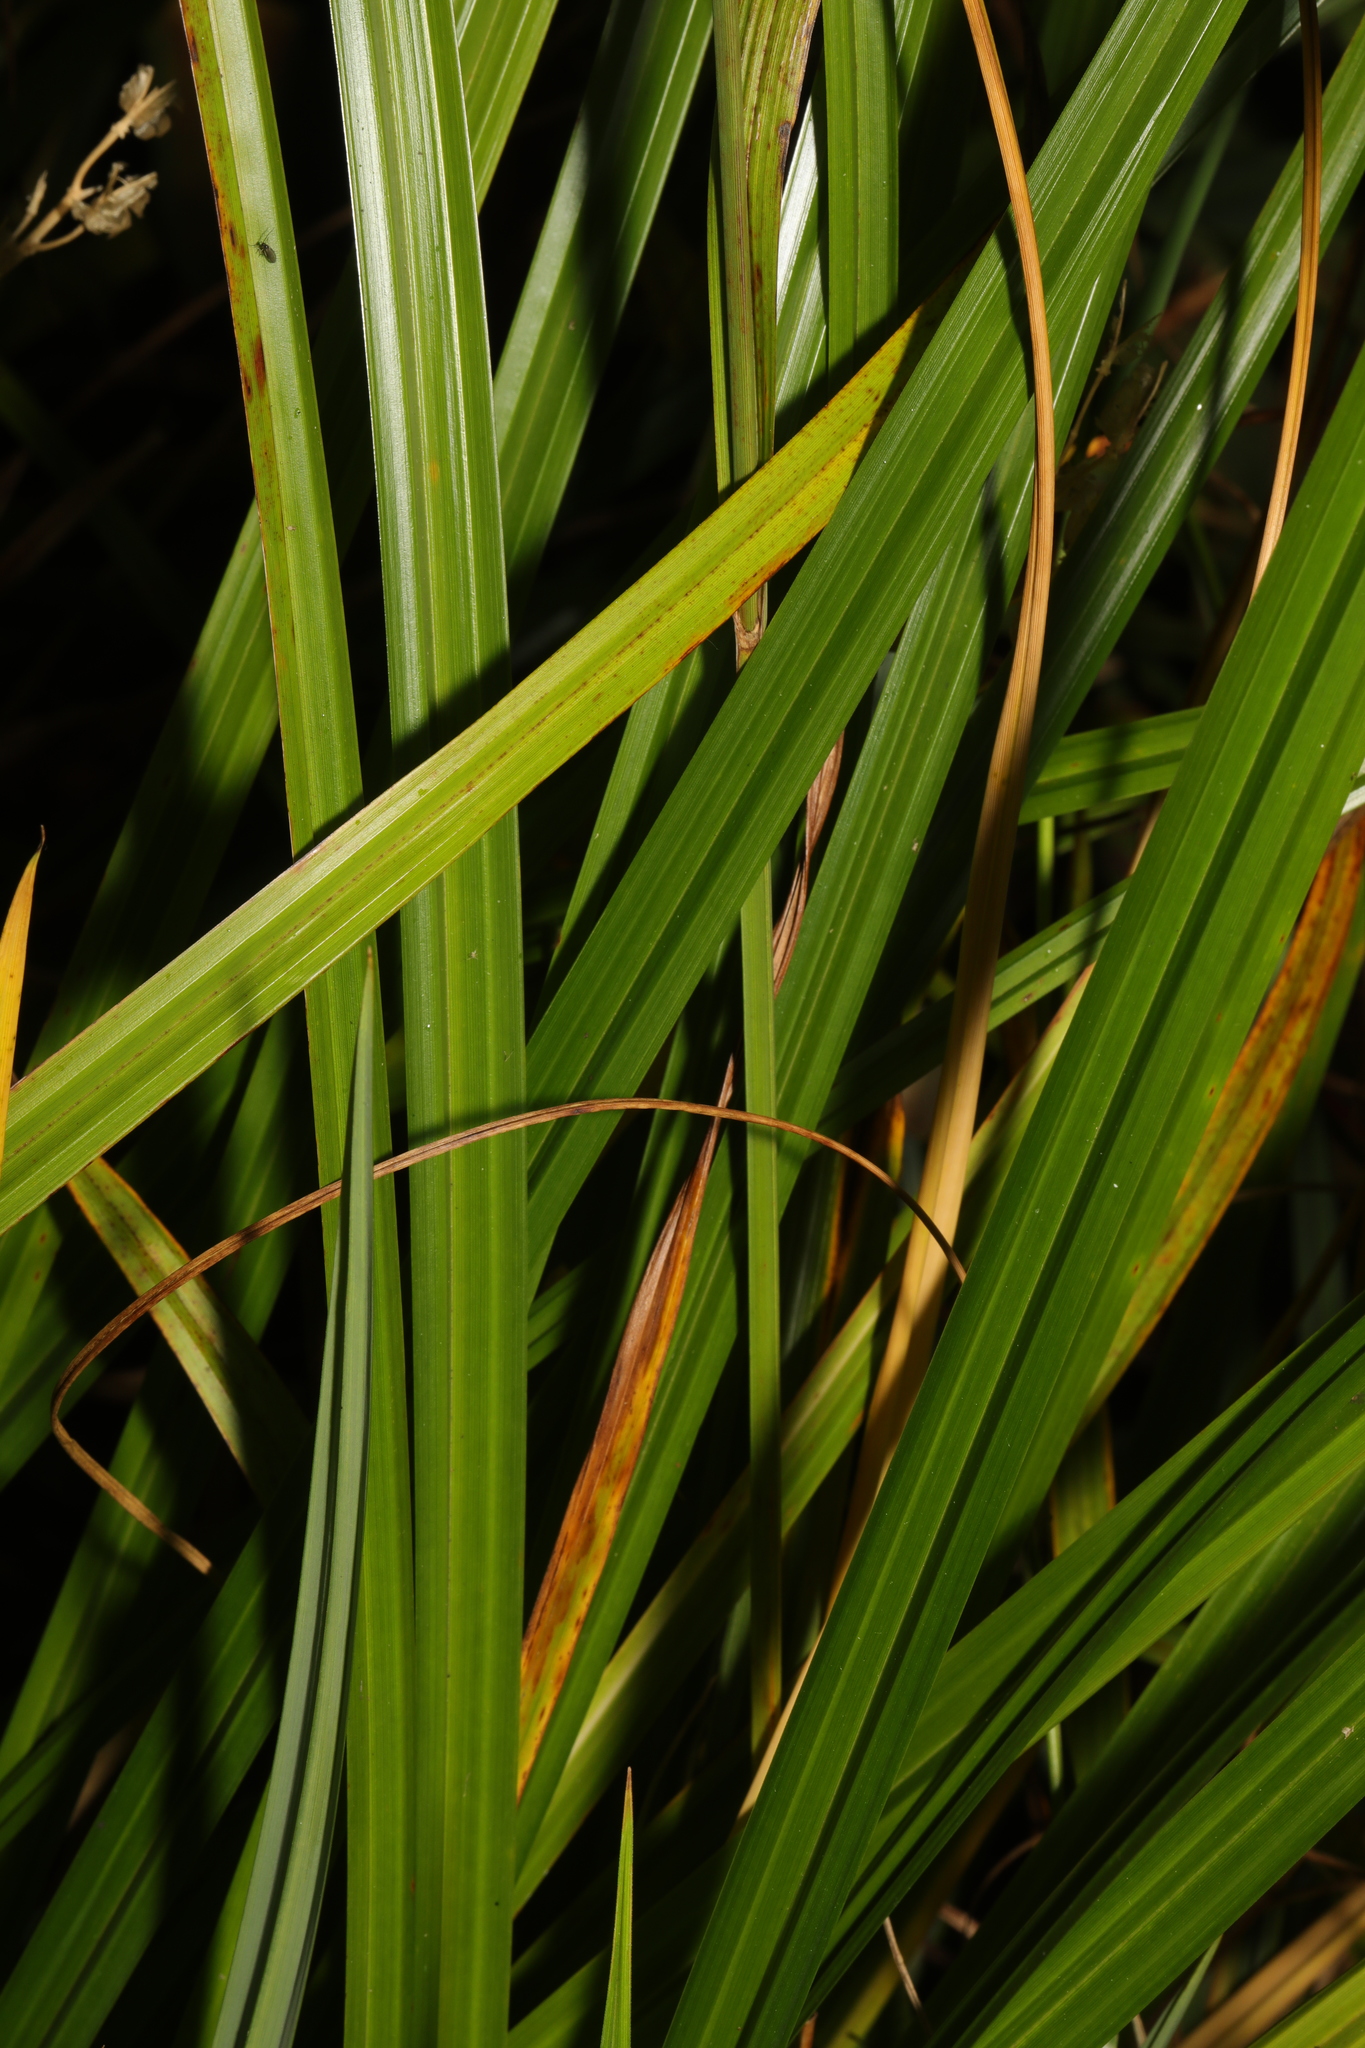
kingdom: Plantae
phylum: Tracheophyta
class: Liliopsida
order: Poales
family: Cyperaceae
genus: Carex
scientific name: Carex pendula
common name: Pendulous sedge
